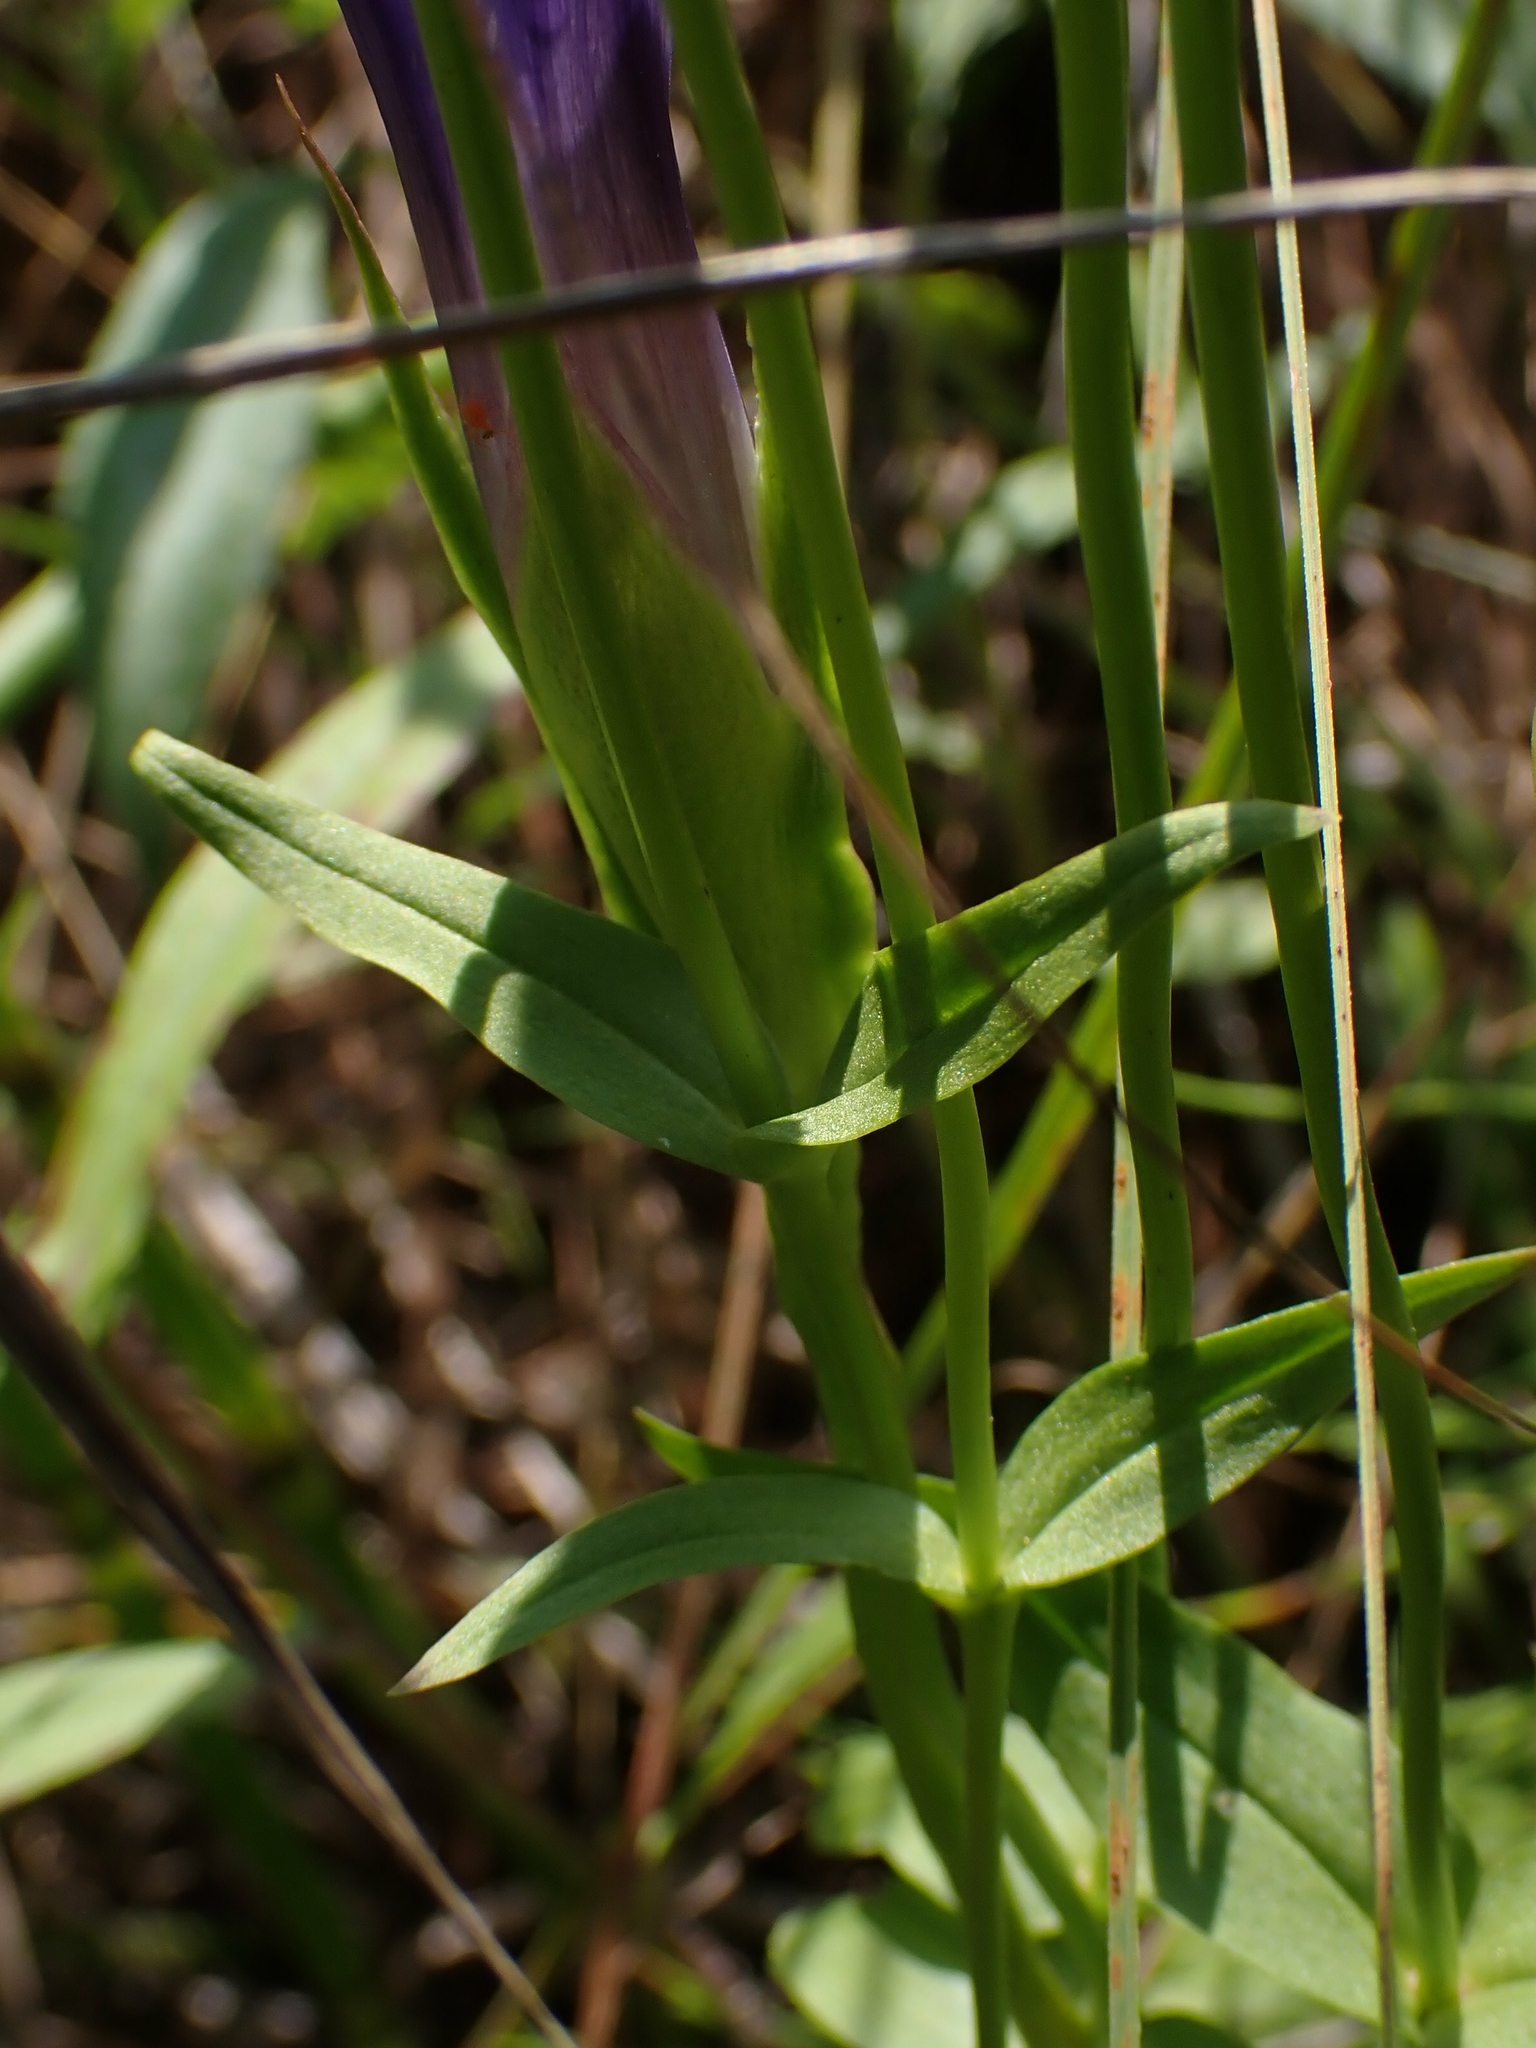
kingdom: Plantae
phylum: Tracheophyta
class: Magnoliopsida
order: Gentianales
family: Gentianaceae
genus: Gentianopsis
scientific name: Gentianopsis crinita
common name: Fringed-gentian
